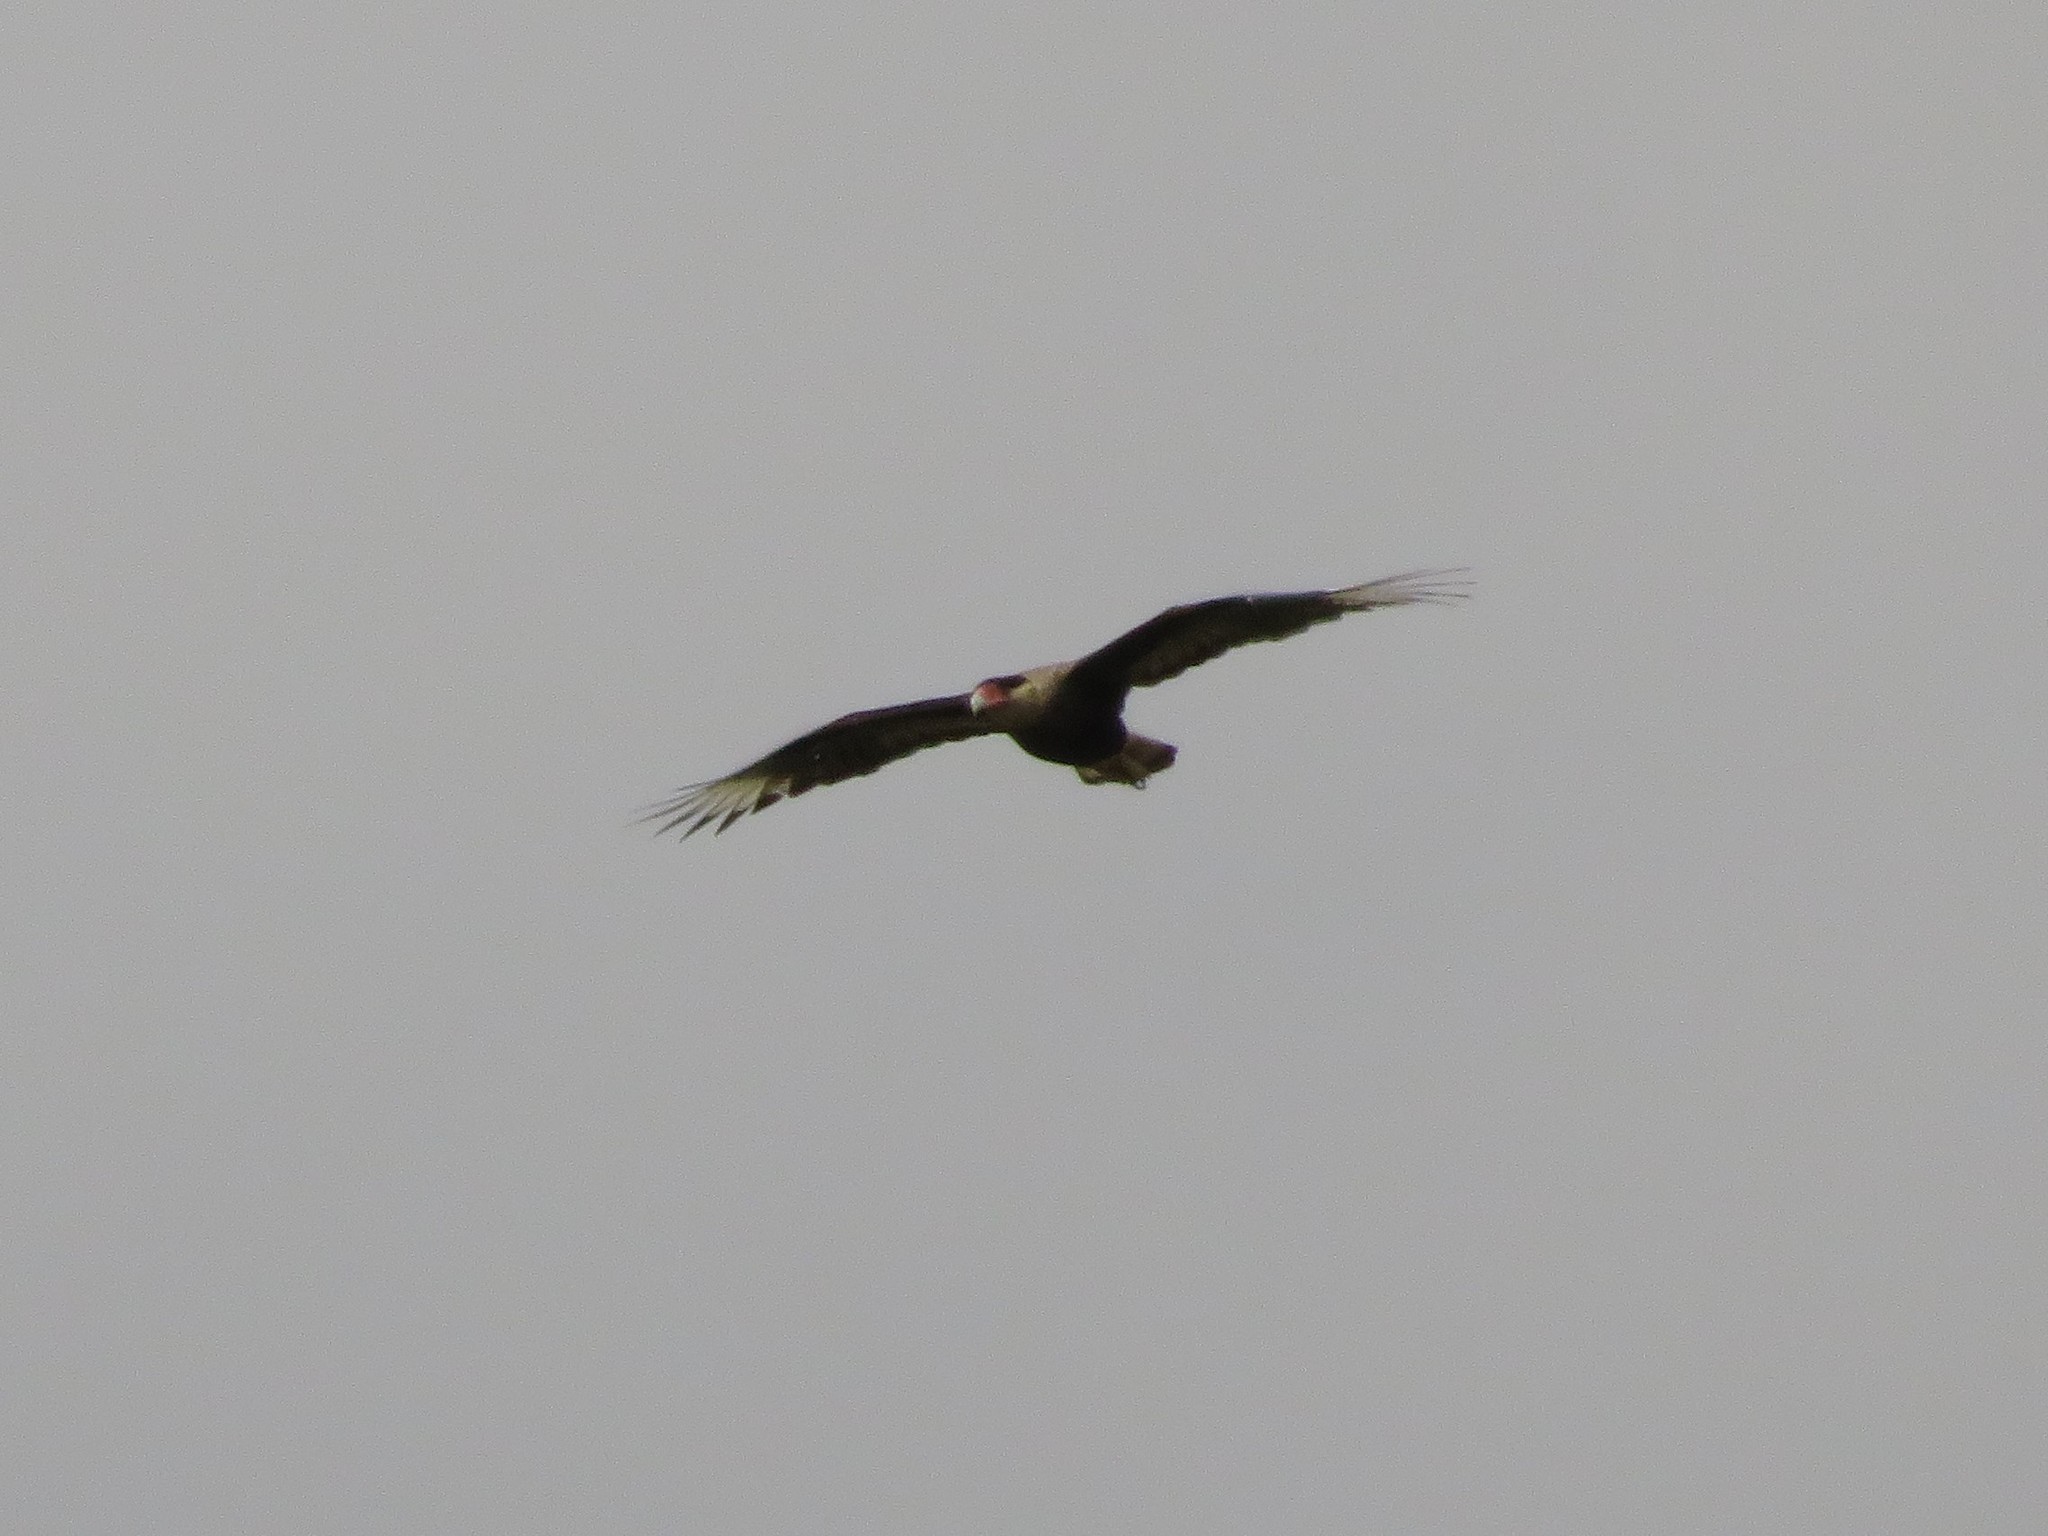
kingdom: Animalia
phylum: Chordata
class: Aves
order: Falconiformes
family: Falconidae
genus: Caracara
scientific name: Caracara plancus
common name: Southern caracara
